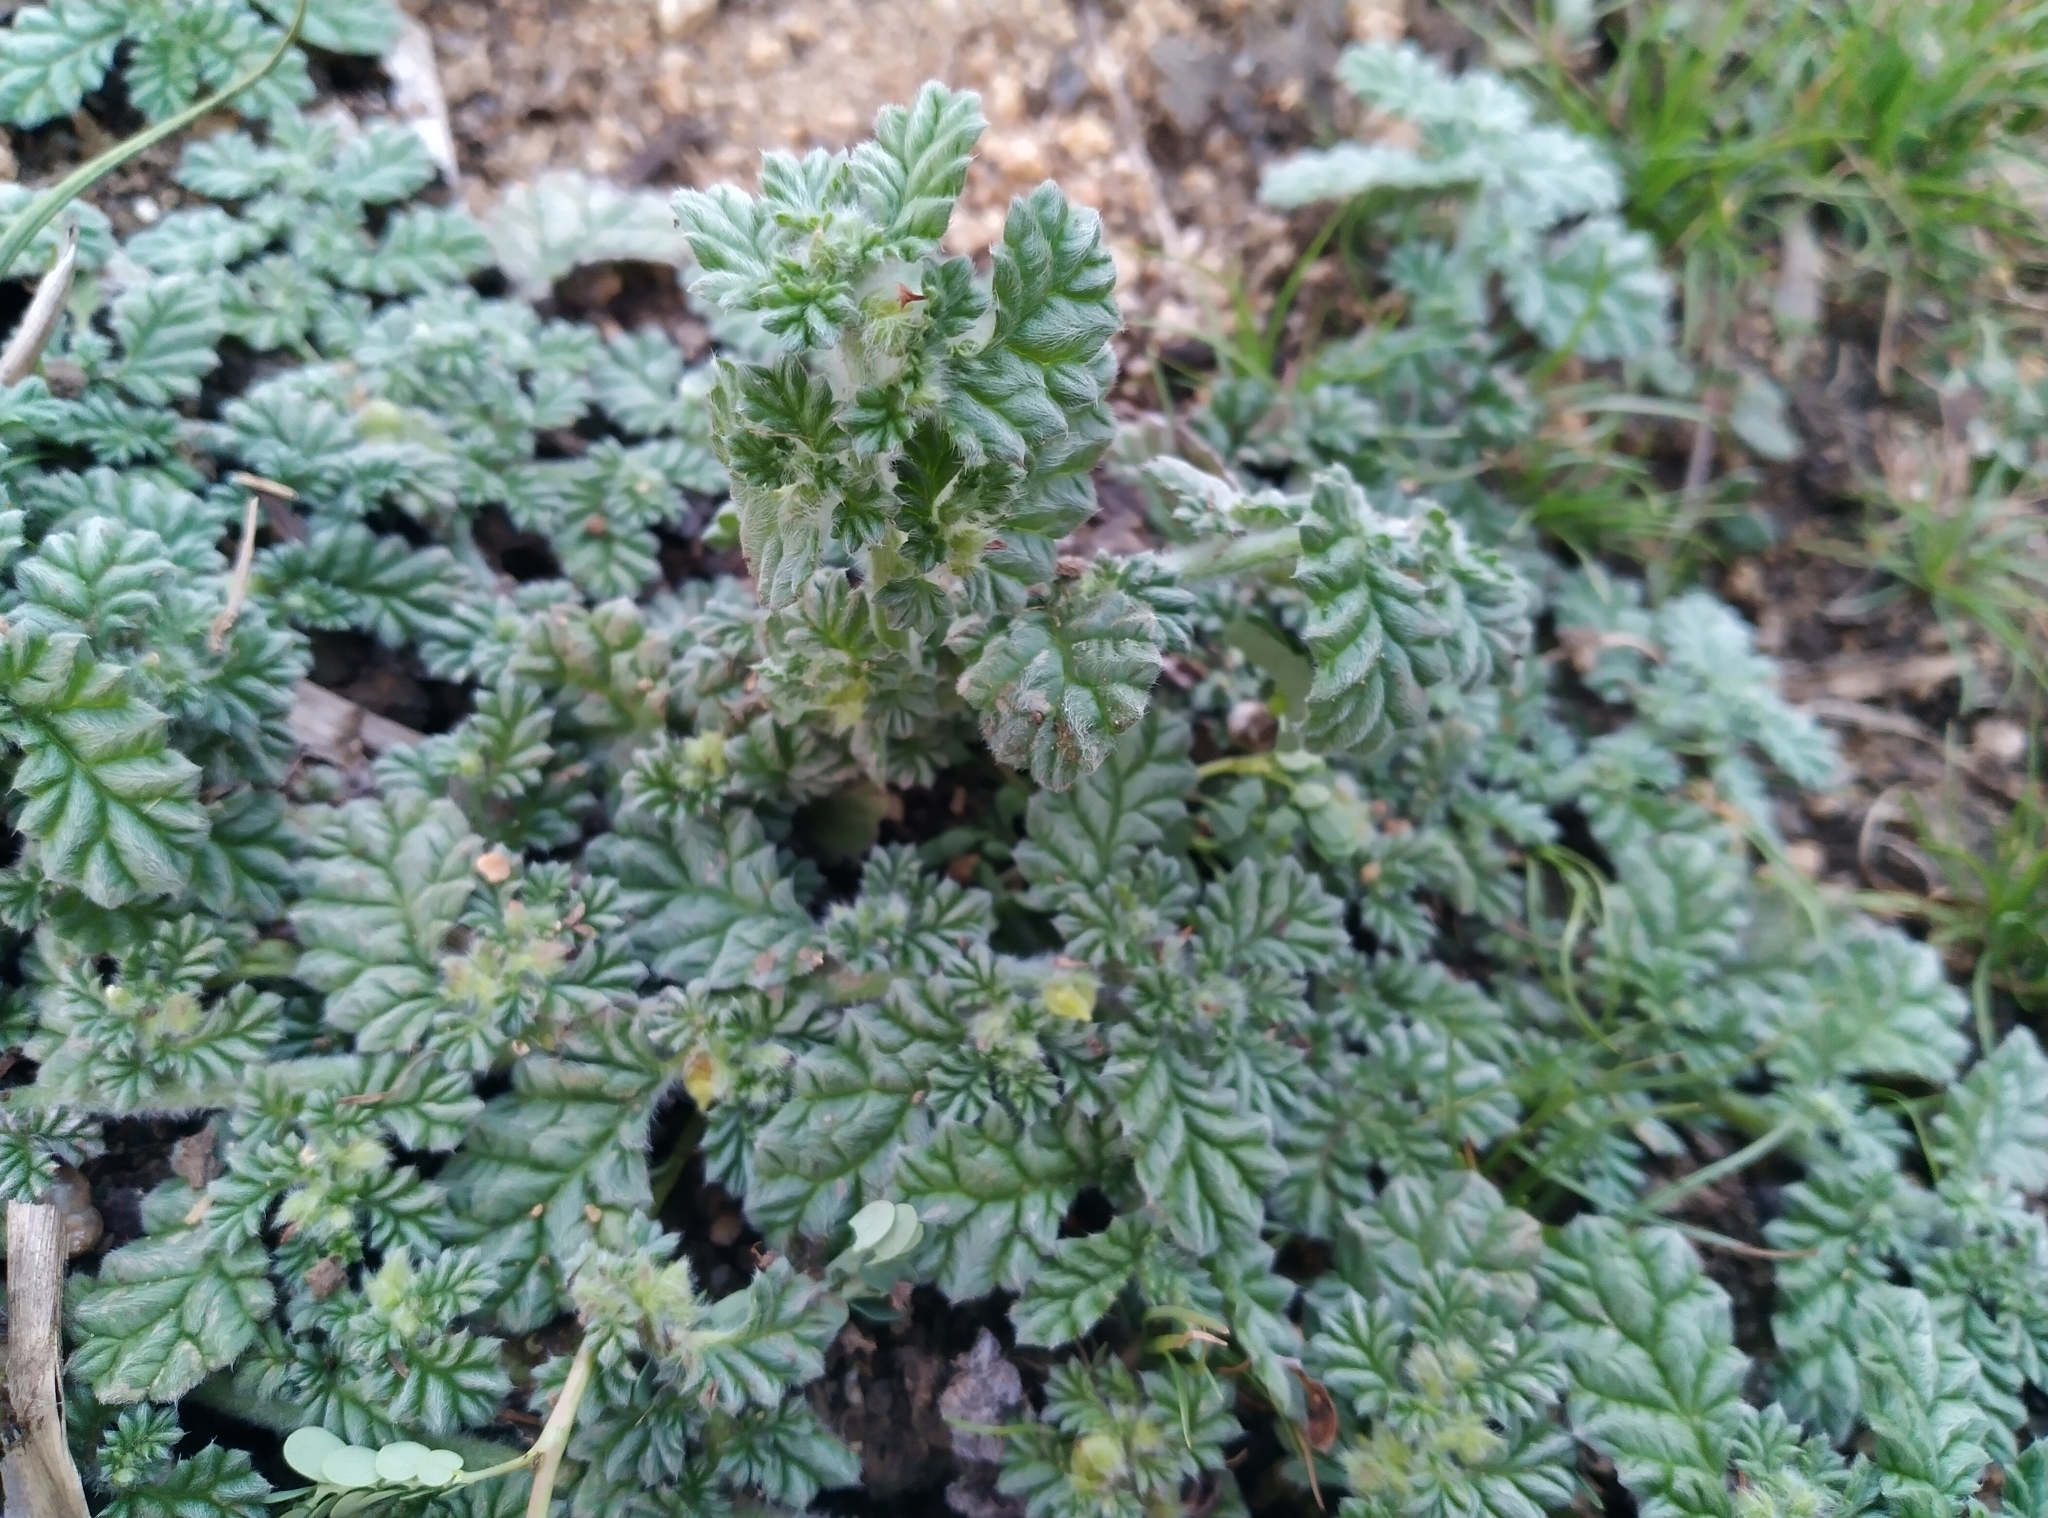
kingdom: Plantae
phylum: Tracheophyta
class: Magnoliopsida
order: Boraginales
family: Coldeniaceae
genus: Coldenia
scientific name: Coldenia procumbens
